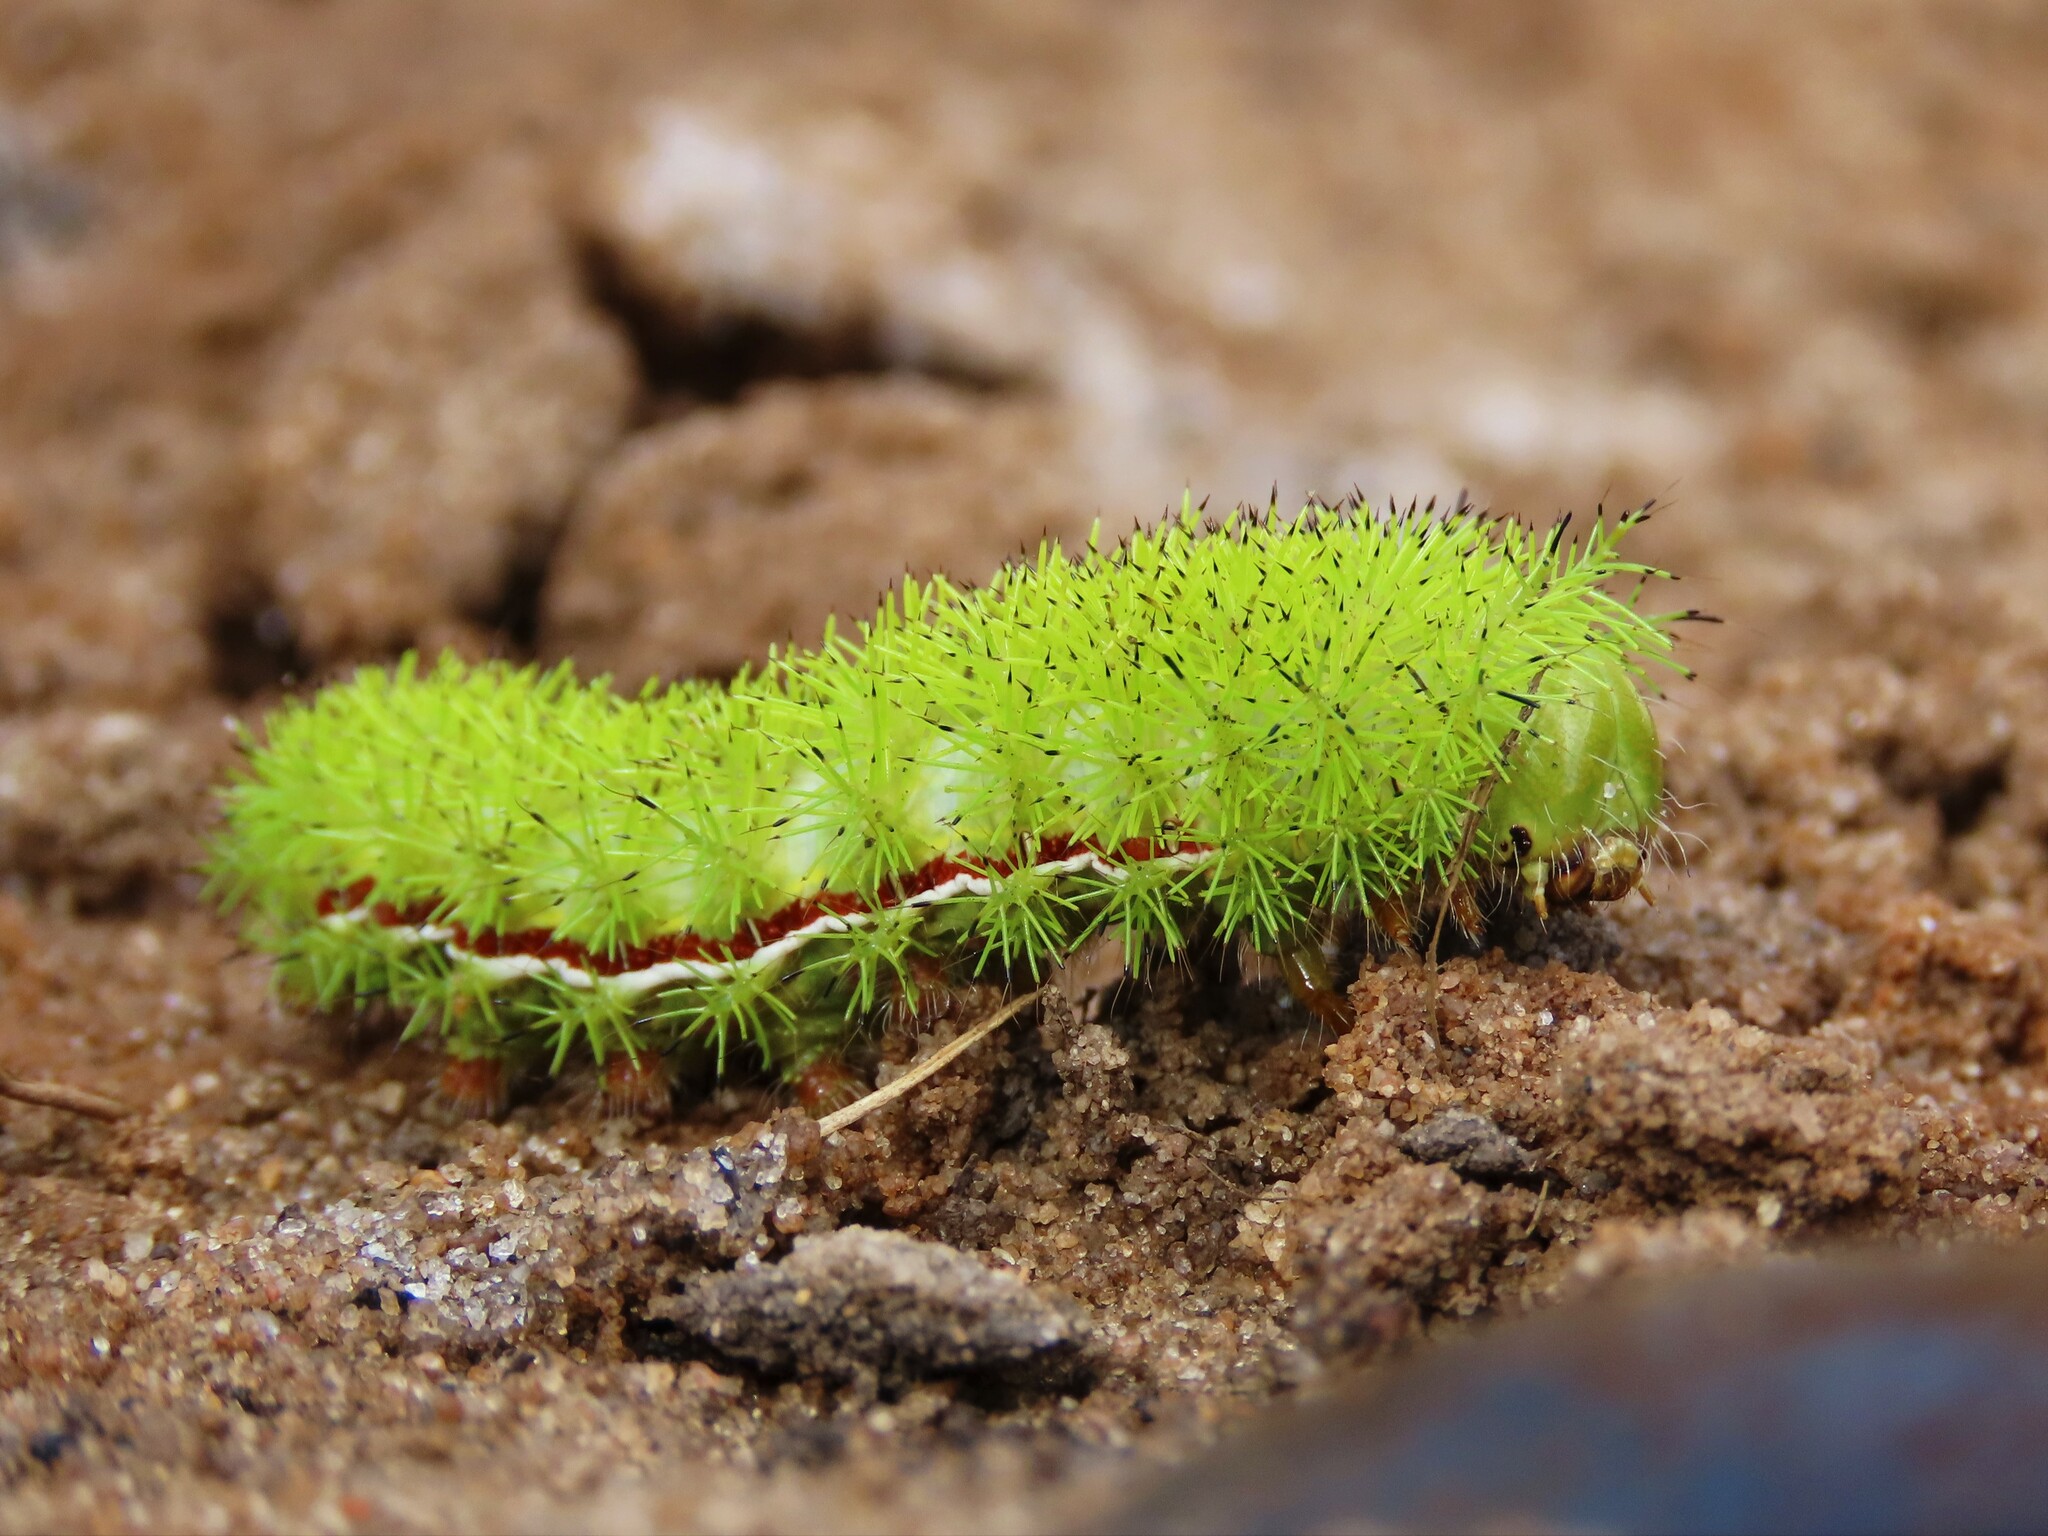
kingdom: Animalia
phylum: Arthropoda
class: Insecta
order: Lepidoptera
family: Saturniidae
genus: Automeris
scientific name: Automeris io
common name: Io moth
